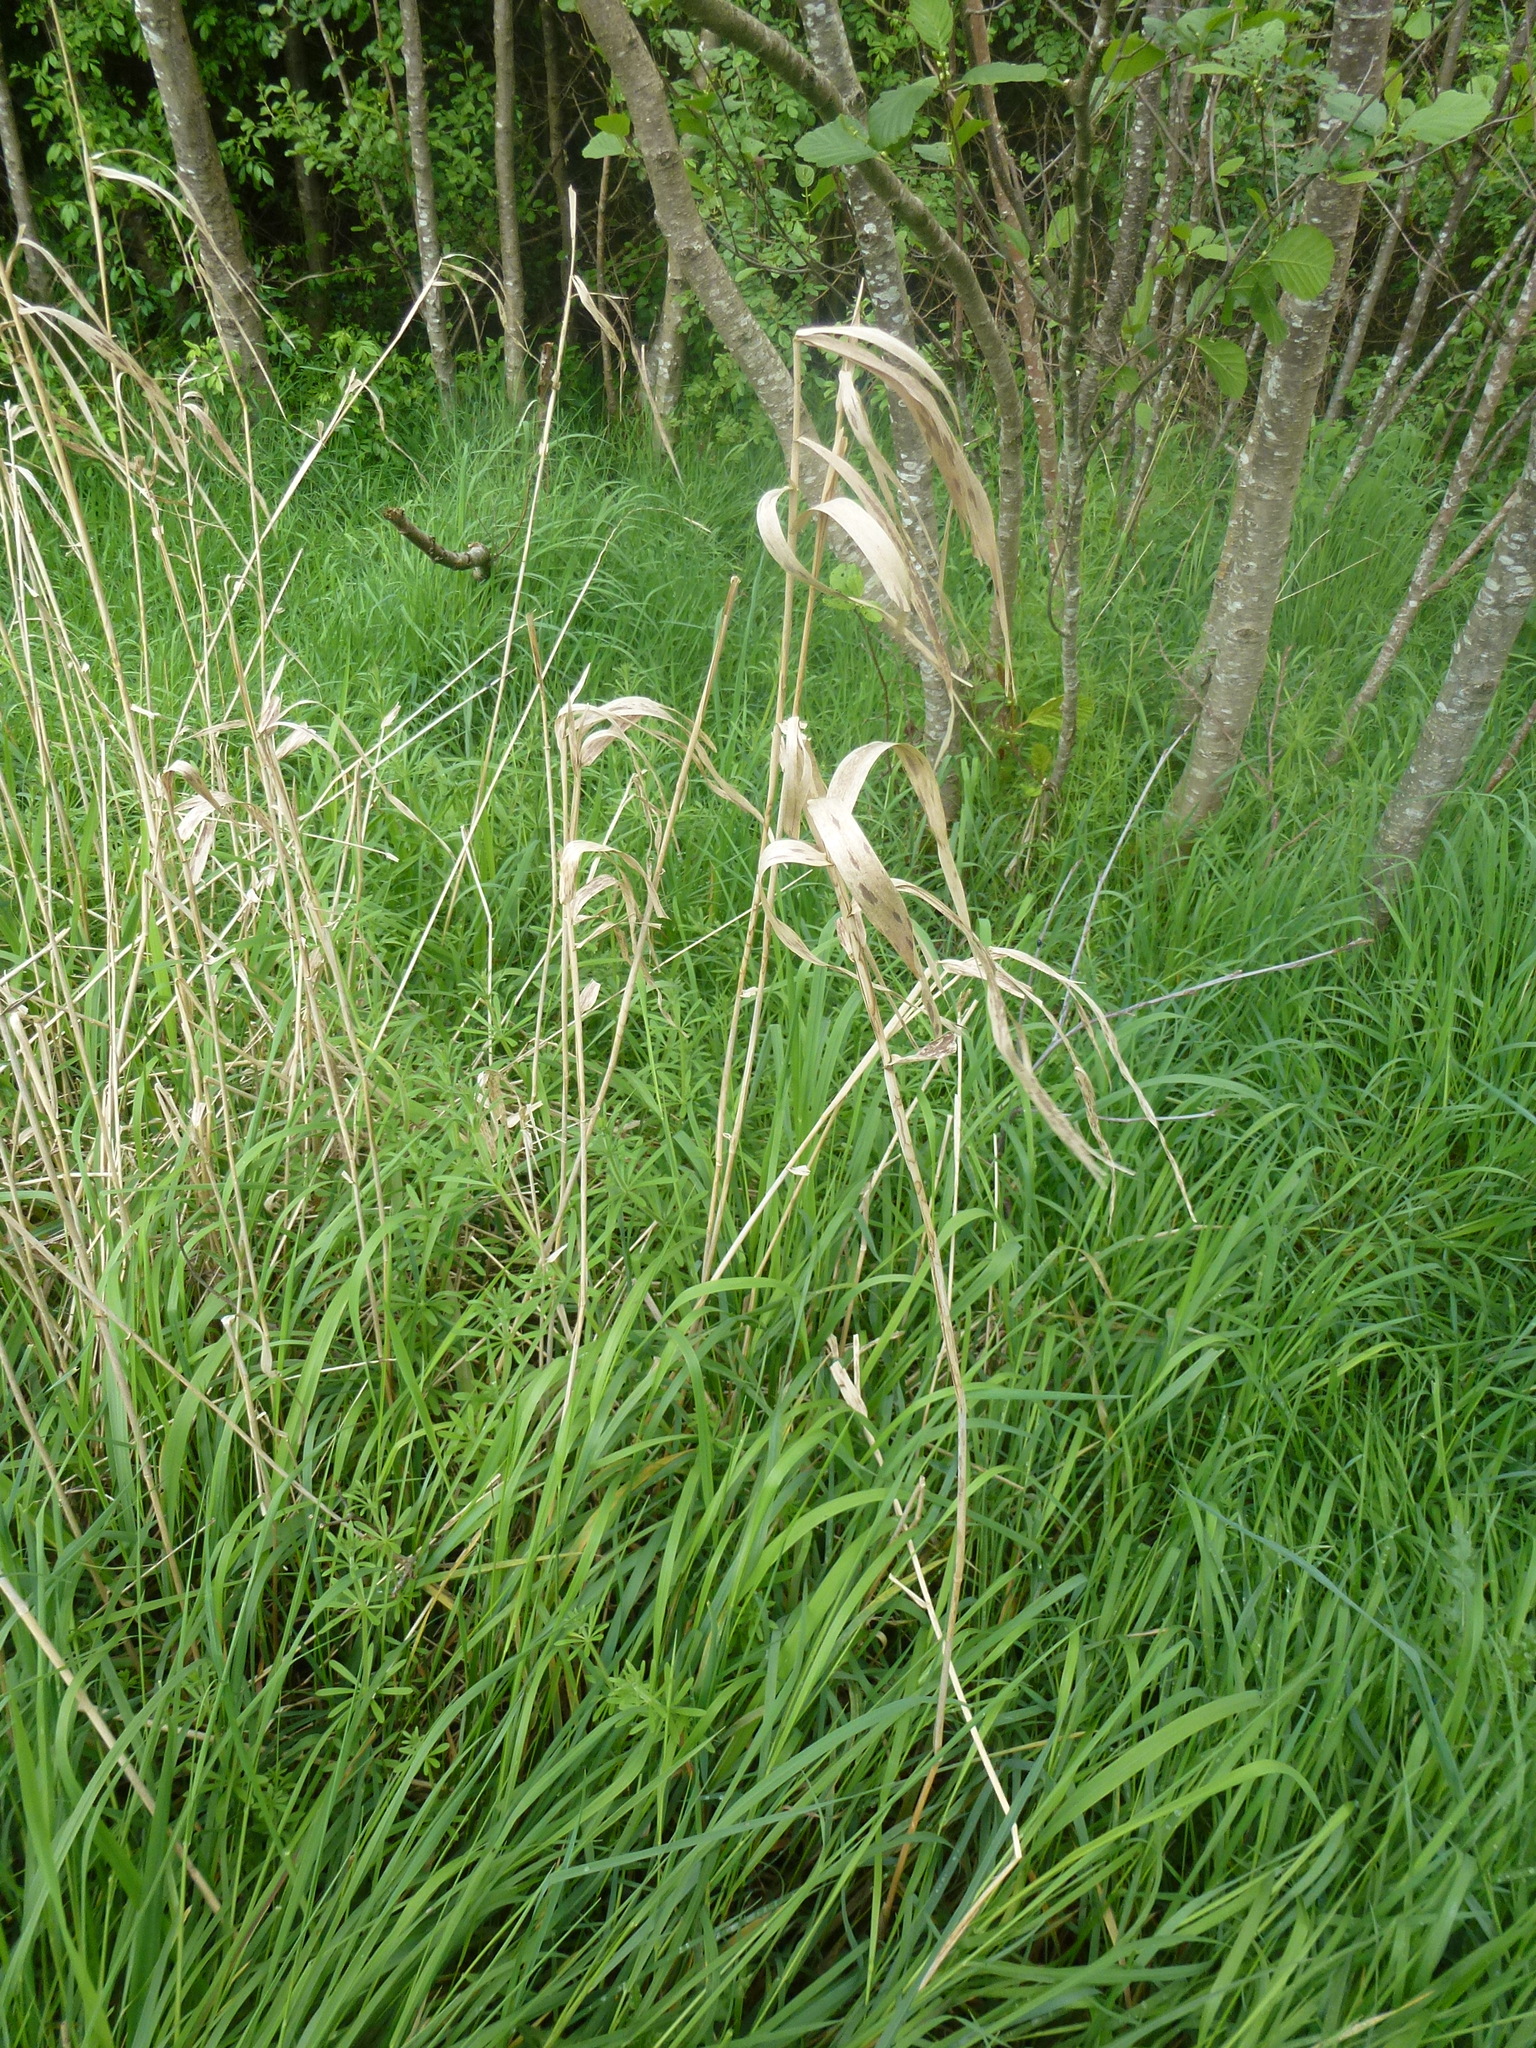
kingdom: Plantae
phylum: Tracheophyta
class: Liliopsida
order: Poales
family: Poaceae
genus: Phalaris
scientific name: Phalaris arundinacea
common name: Reed canary-grass
